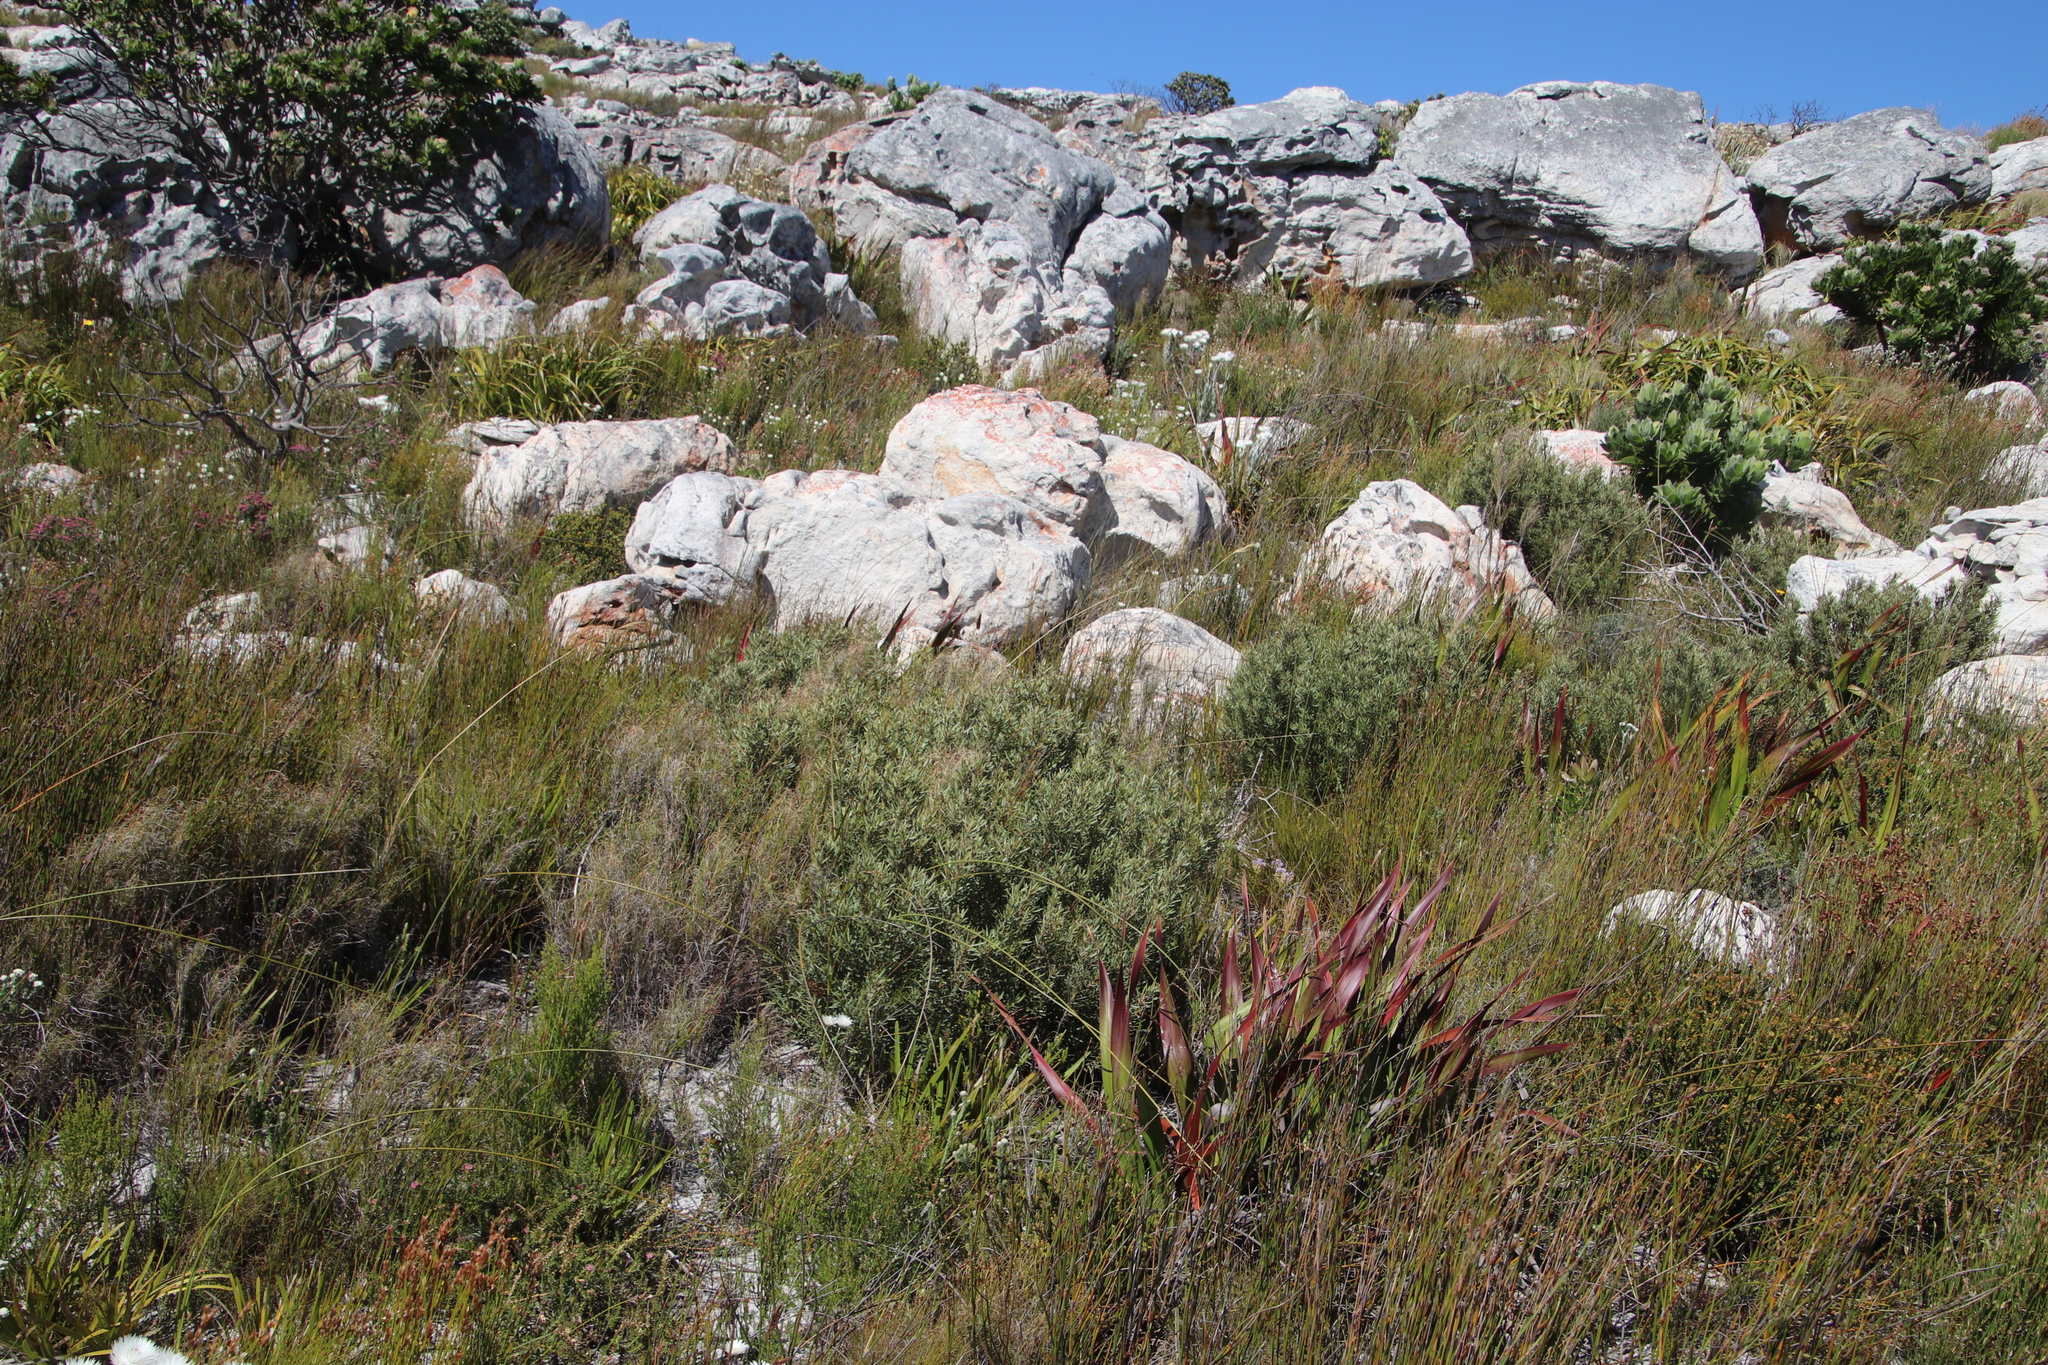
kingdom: Plantae
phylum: Tracheophyta
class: Magnoliopsida
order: Cornales
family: Grubbiaceae
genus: Grubbia
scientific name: Grubbia tomentosa
